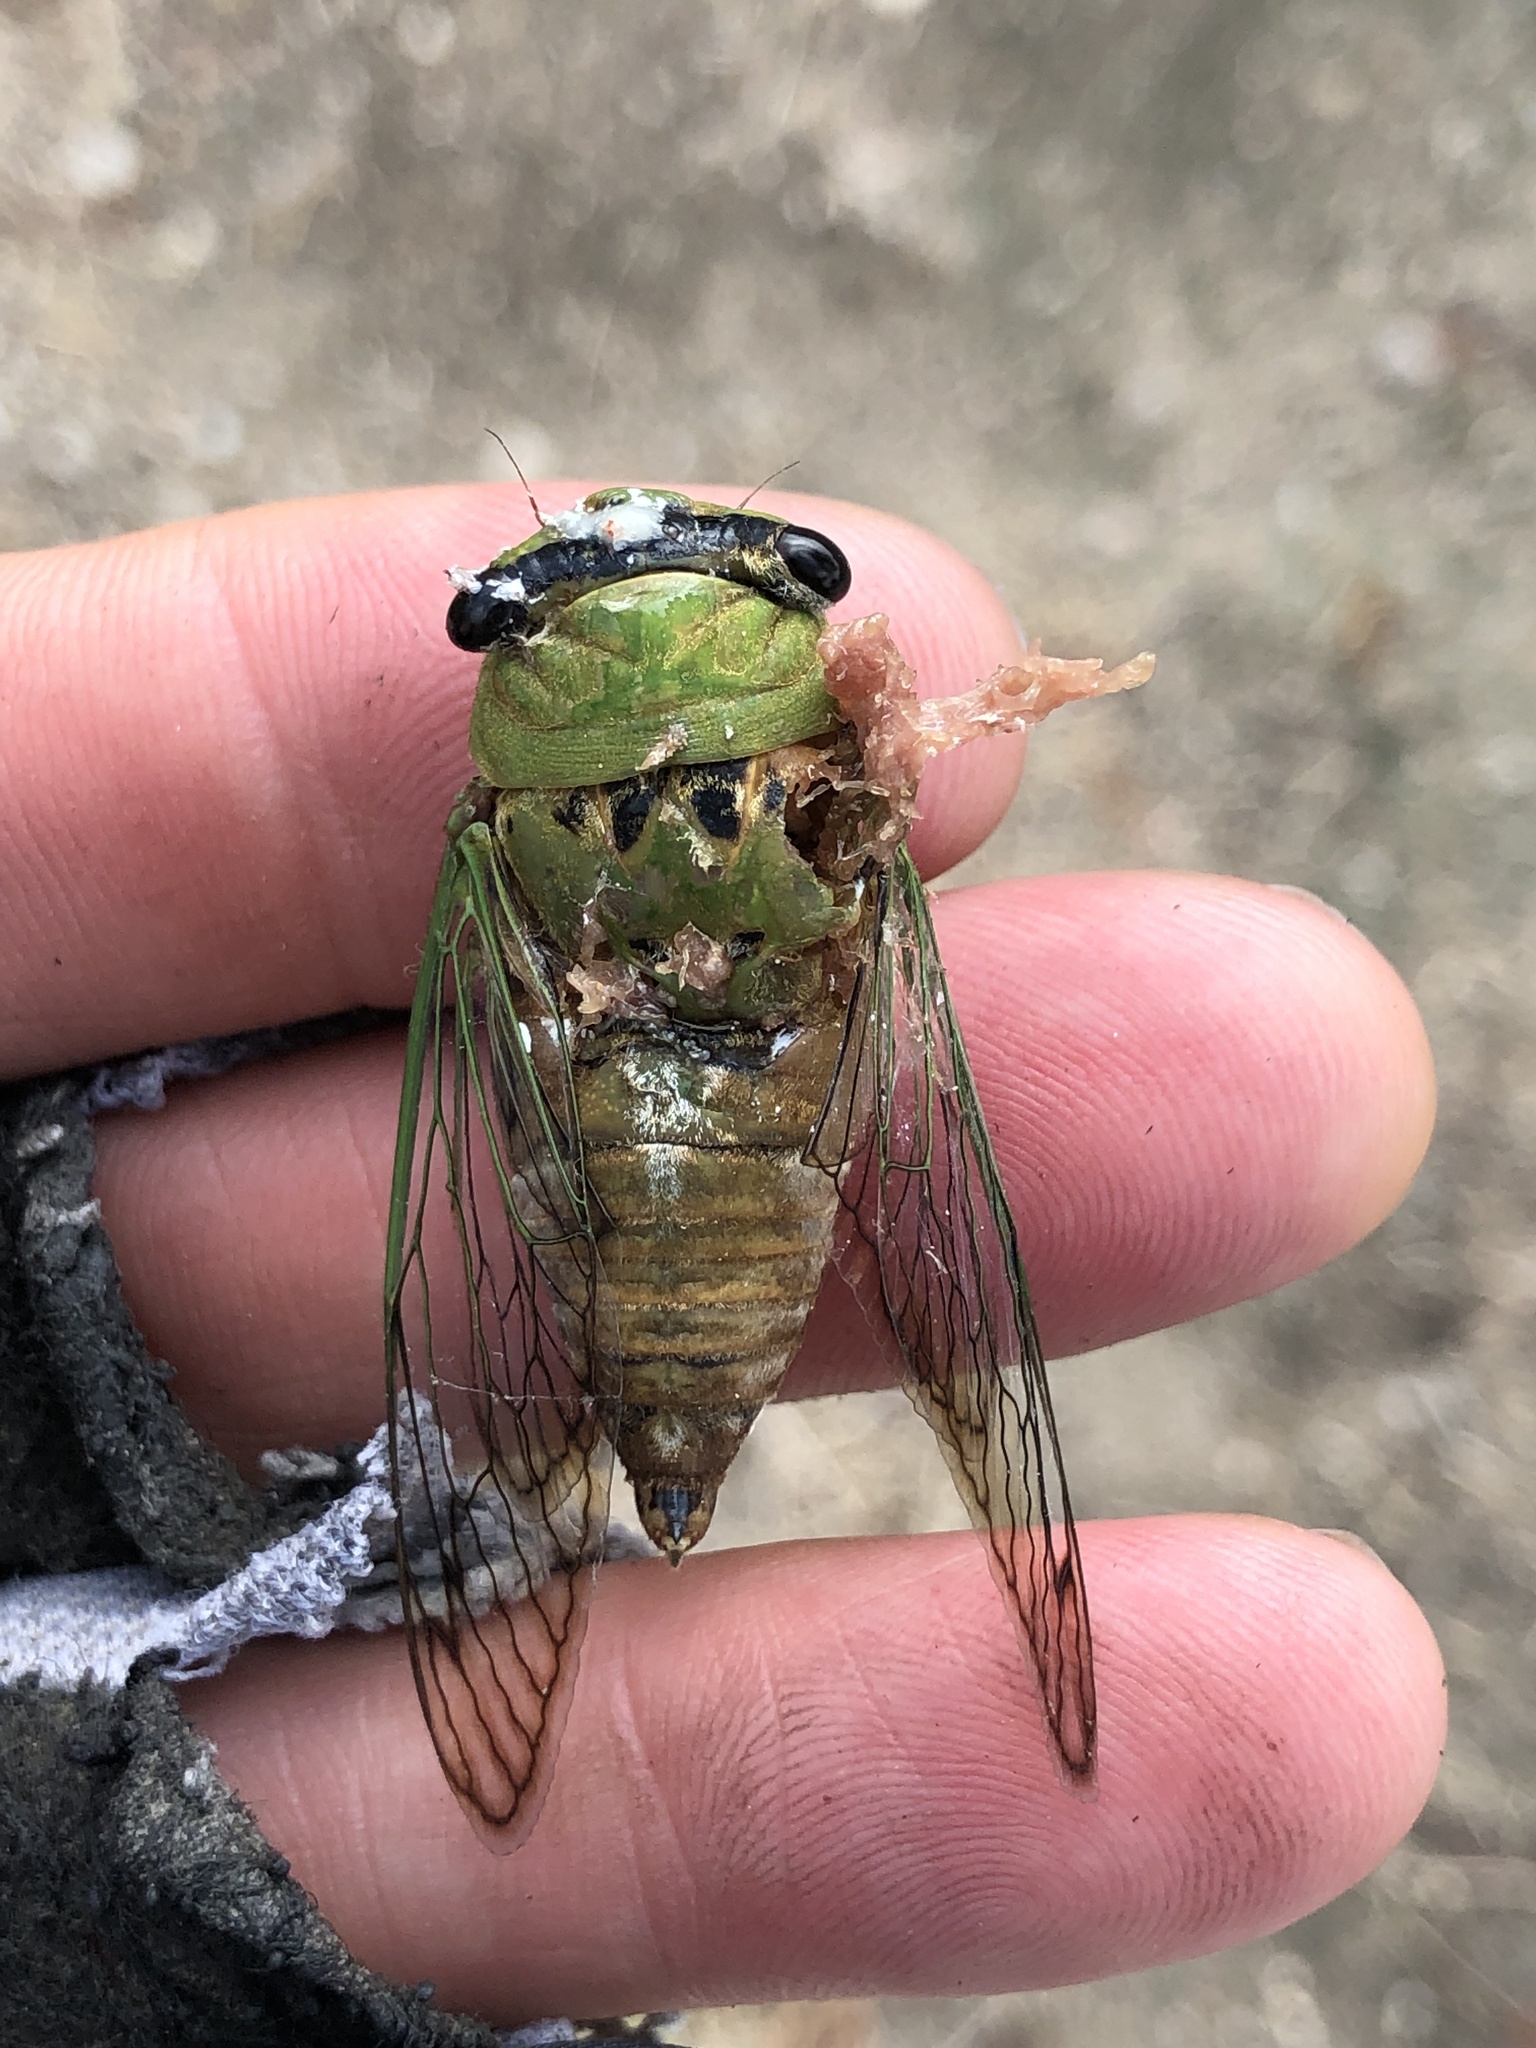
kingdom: Animalia
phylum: Arthropoda
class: Insecta
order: Hemiptera
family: Cicadidae
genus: Neotibicen
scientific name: Neotibicen superbus
